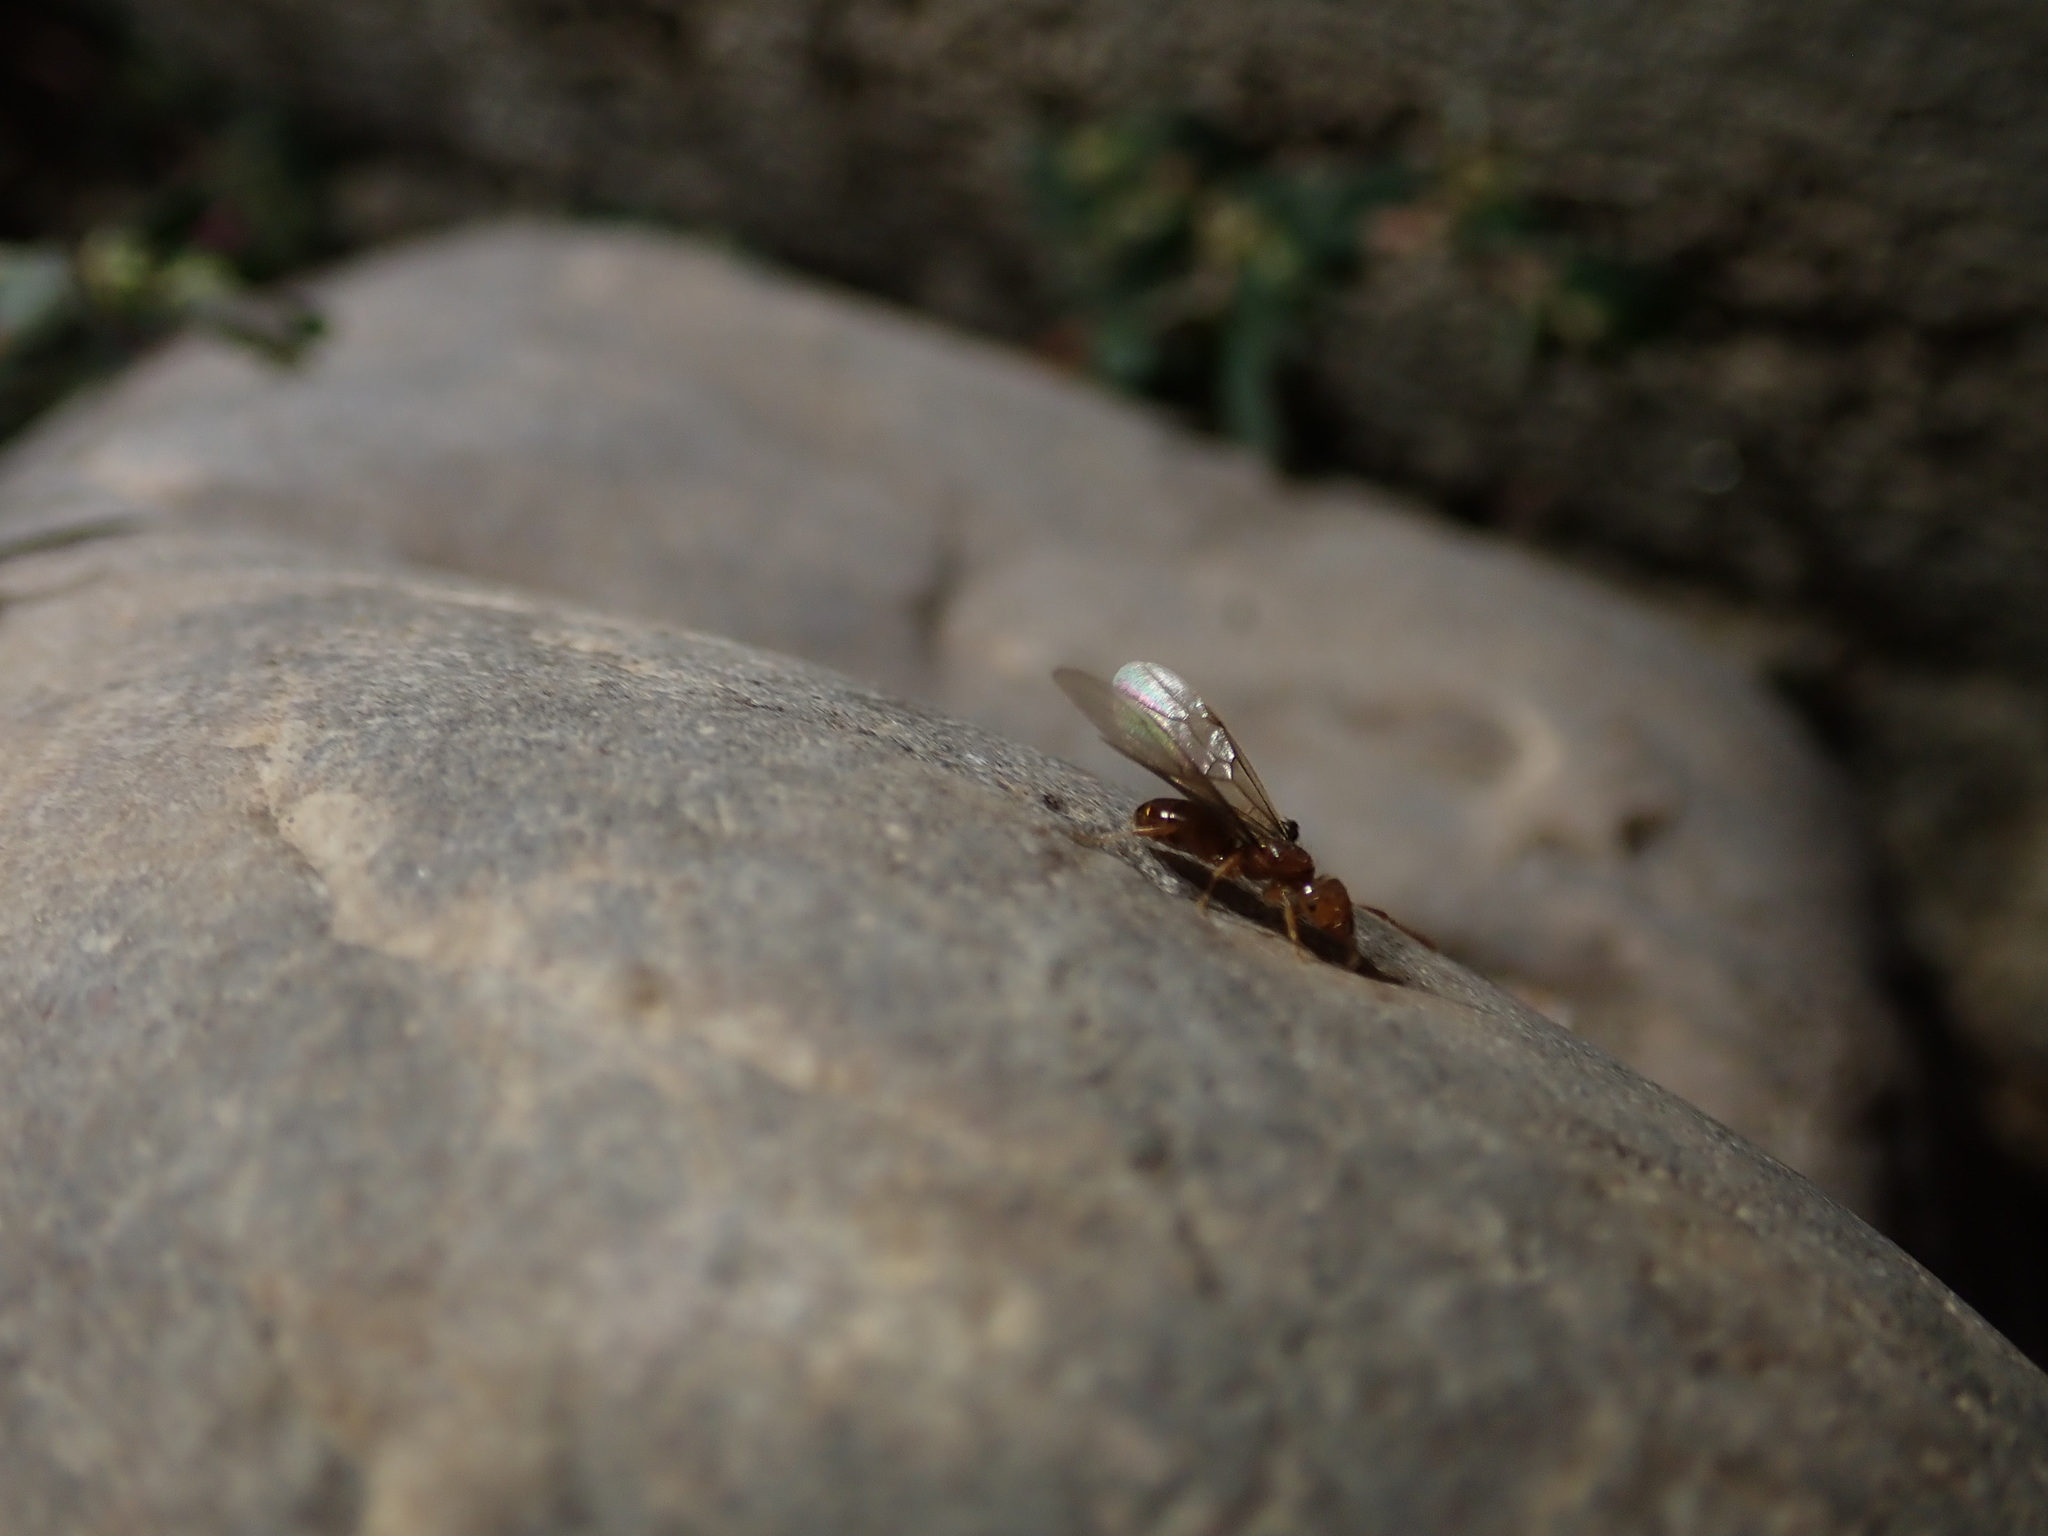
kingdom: Animalia
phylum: Arthropoda
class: Insecta
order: Hymenoptera
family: Formicidae
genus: Lasius
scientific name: Lasius californicus
